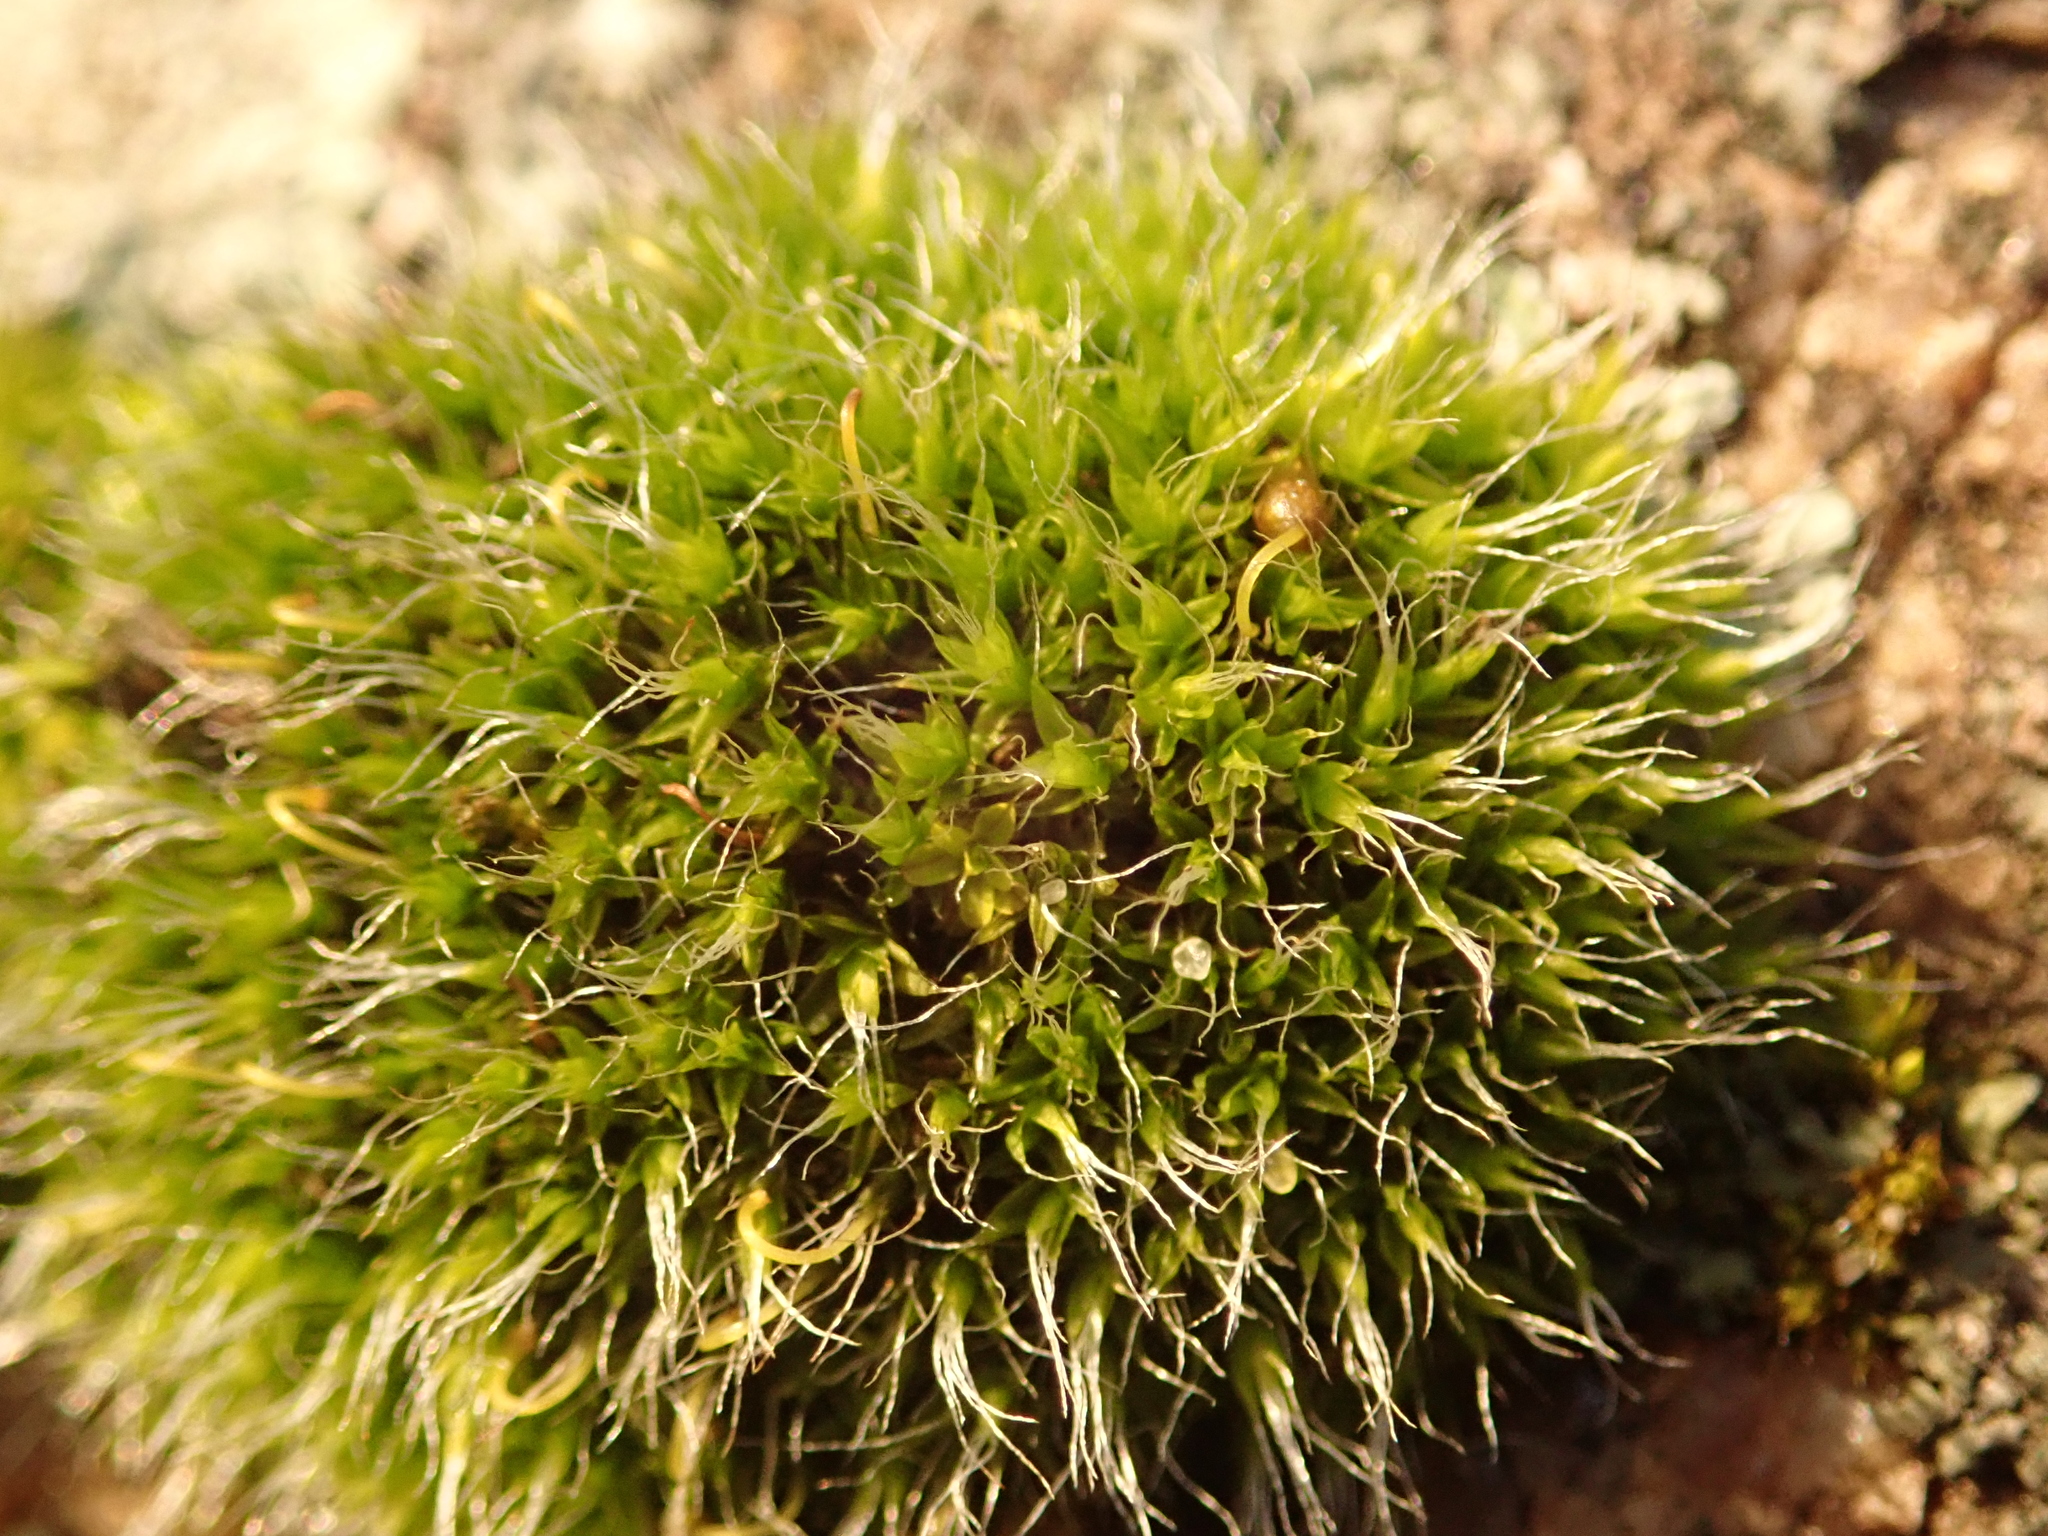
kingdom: Plantae
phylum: Bryophyta
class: Bryopsida
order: Grimmiales
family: Grimmiaceae
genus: Grimmia
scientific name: Grimmia pulvinata
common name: Grey-cushioned grimmia
